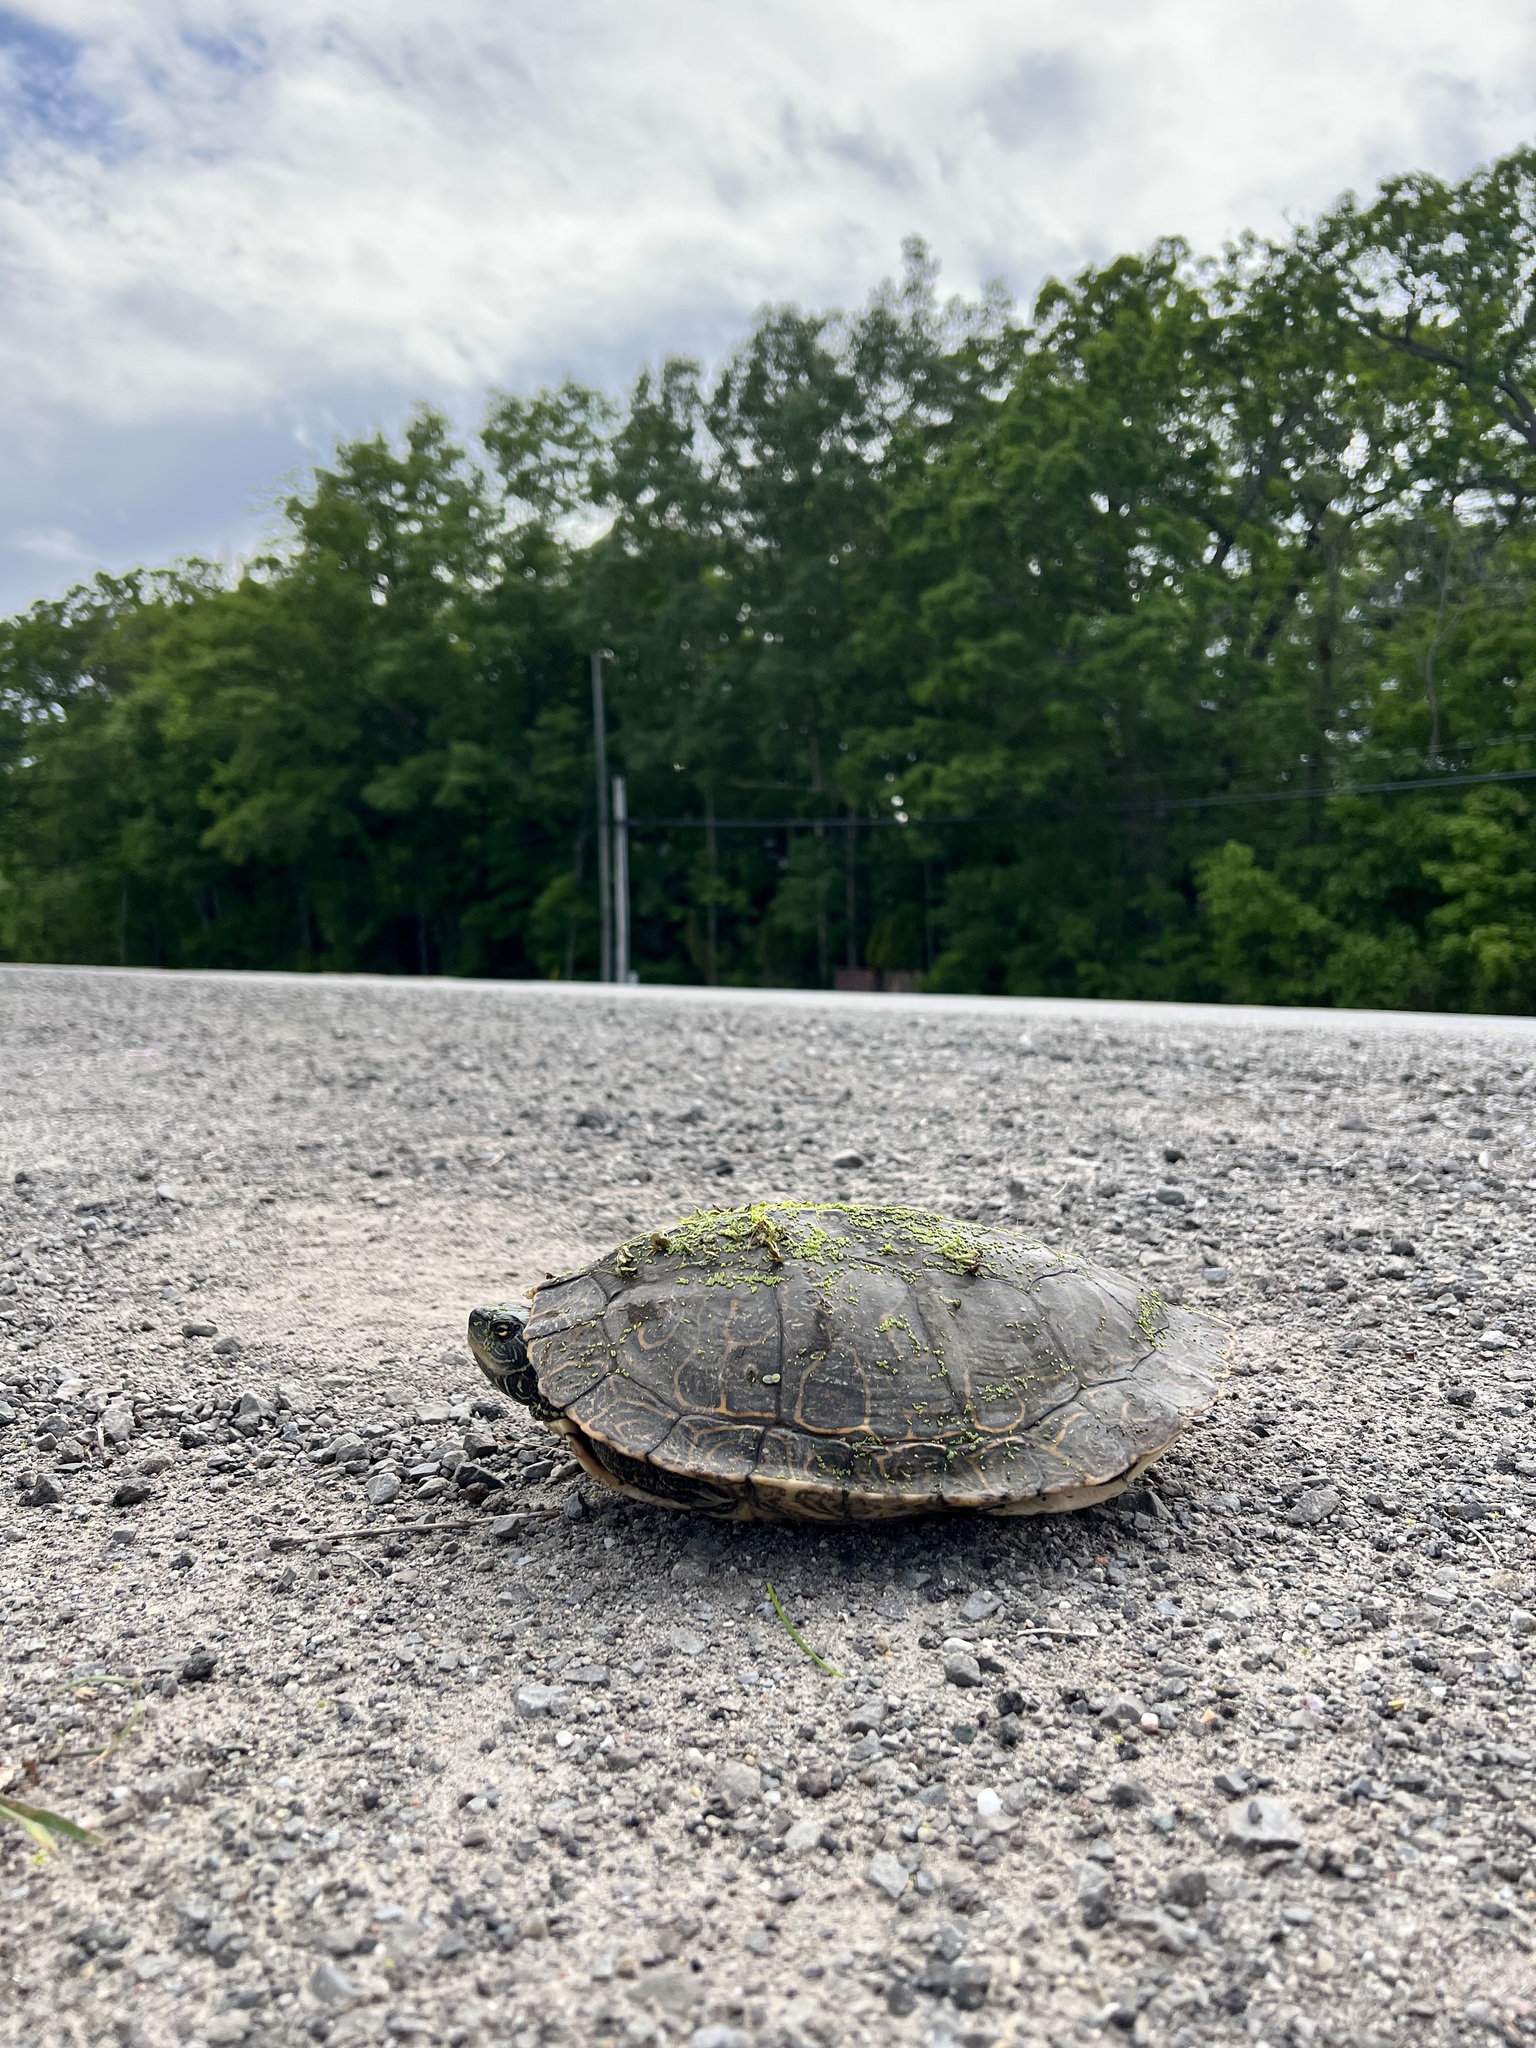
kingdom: Animalia
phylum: Chordata
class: Testudines
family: Emydidae
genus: Graptemys
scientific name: Graptemys geographica
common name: Common map turtle
